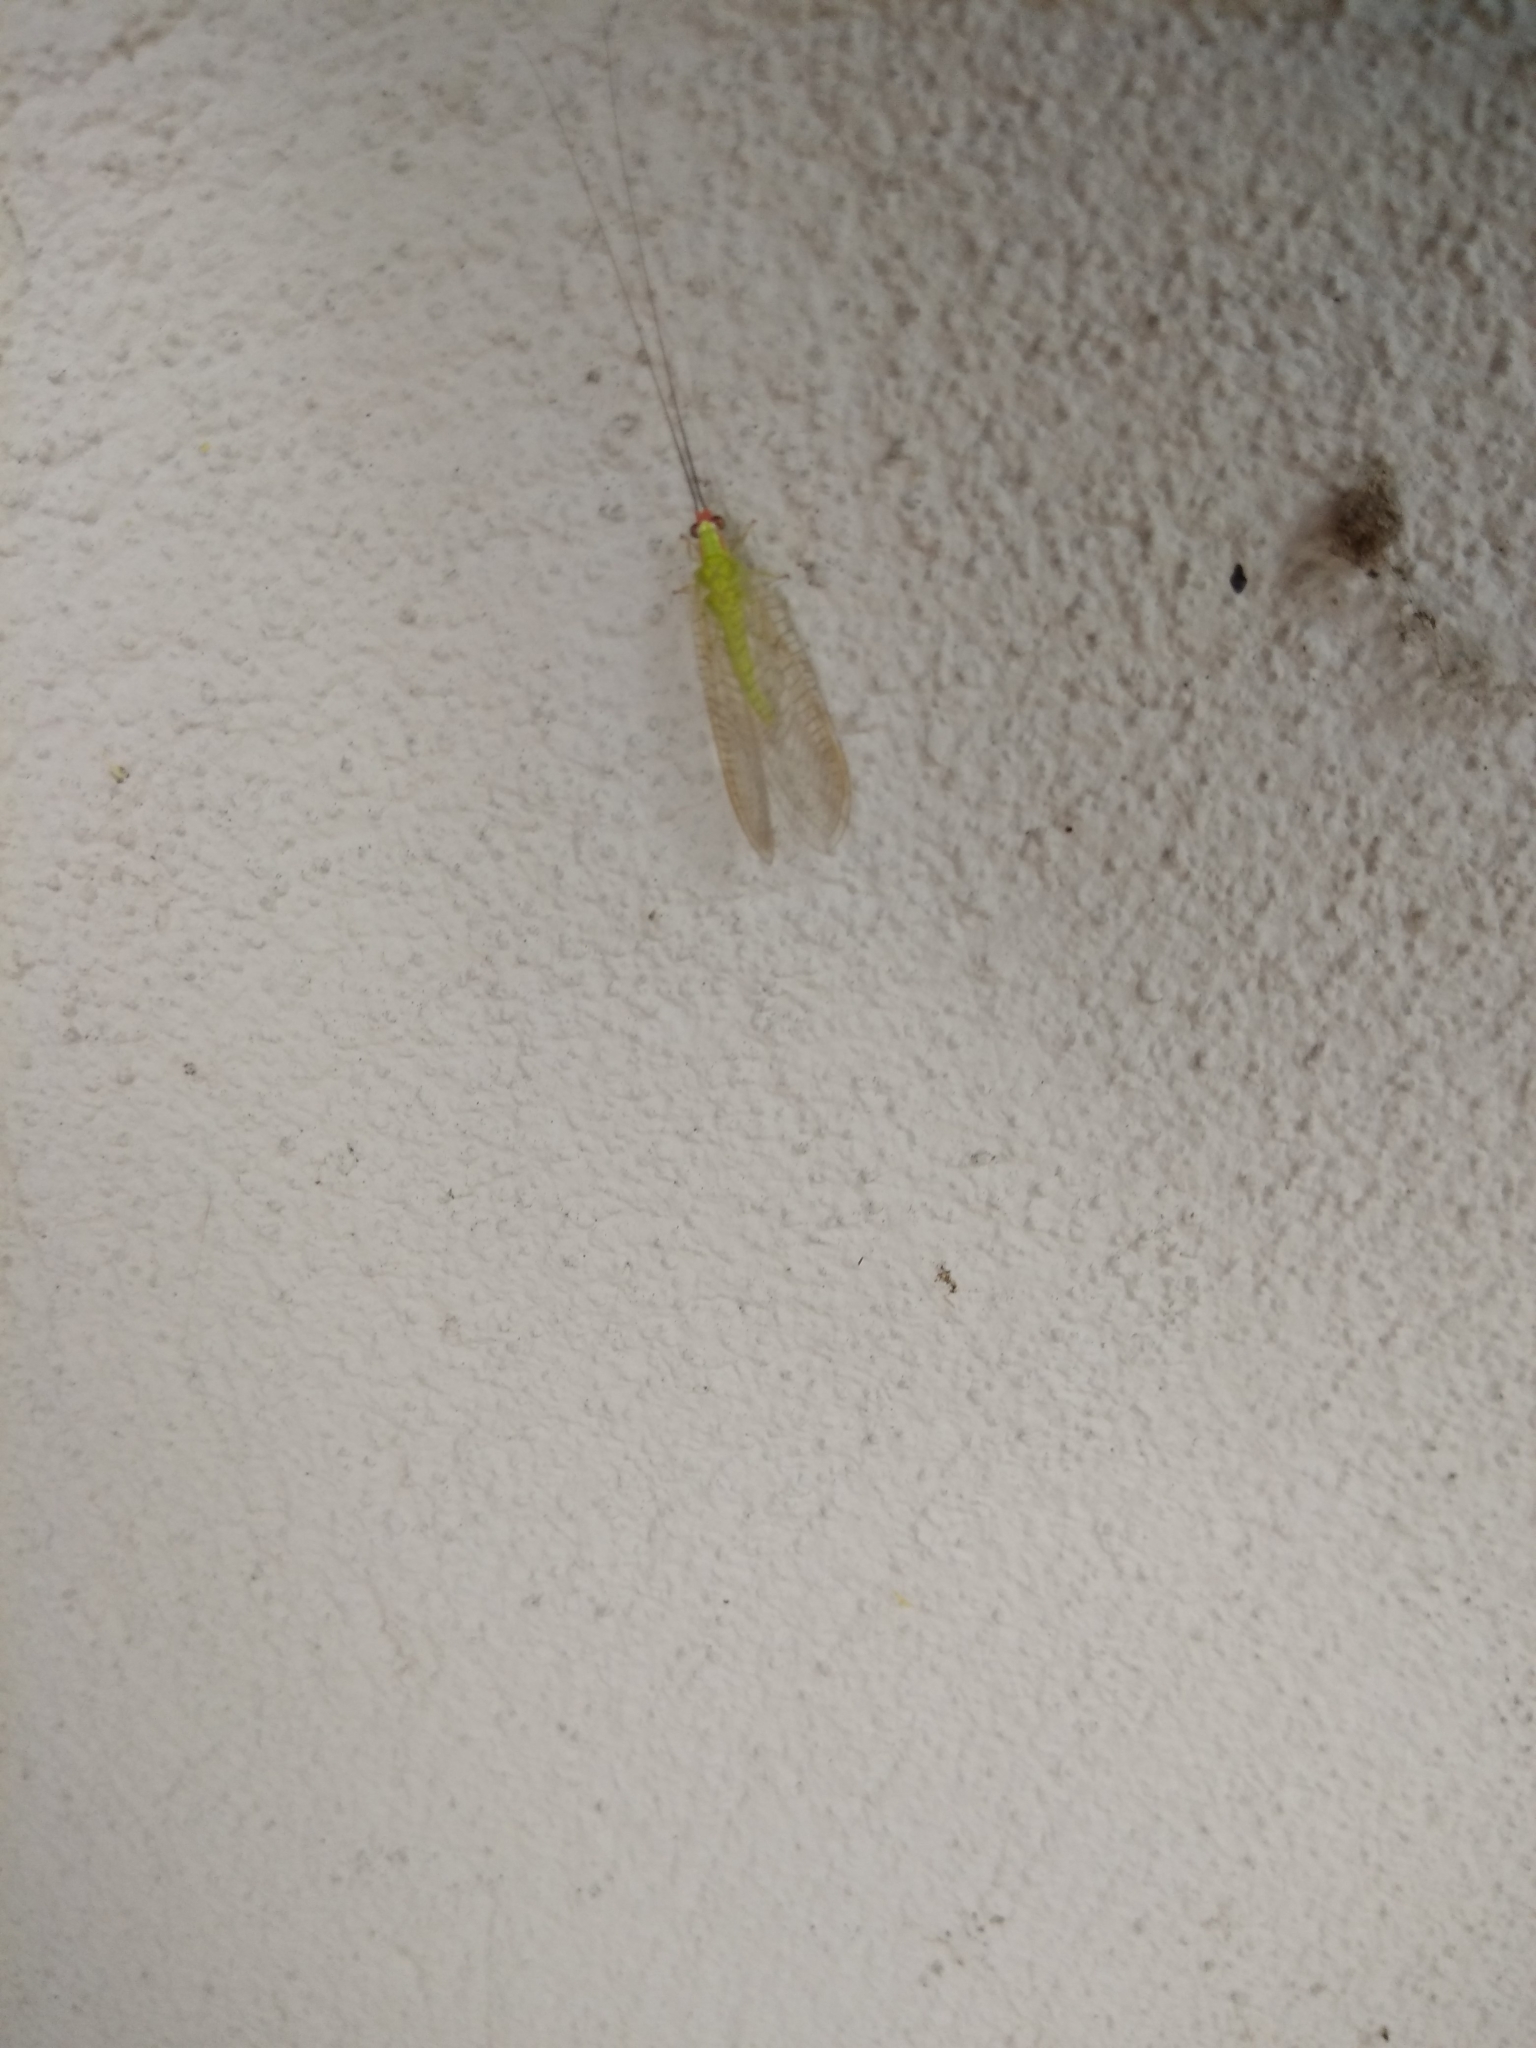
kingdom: Animalia
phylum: Arthropoda
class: Insecta
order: Neuroptera
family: Chrysopidae
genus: Ceraeochrysa
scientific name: Ceraeochrysa smithi
